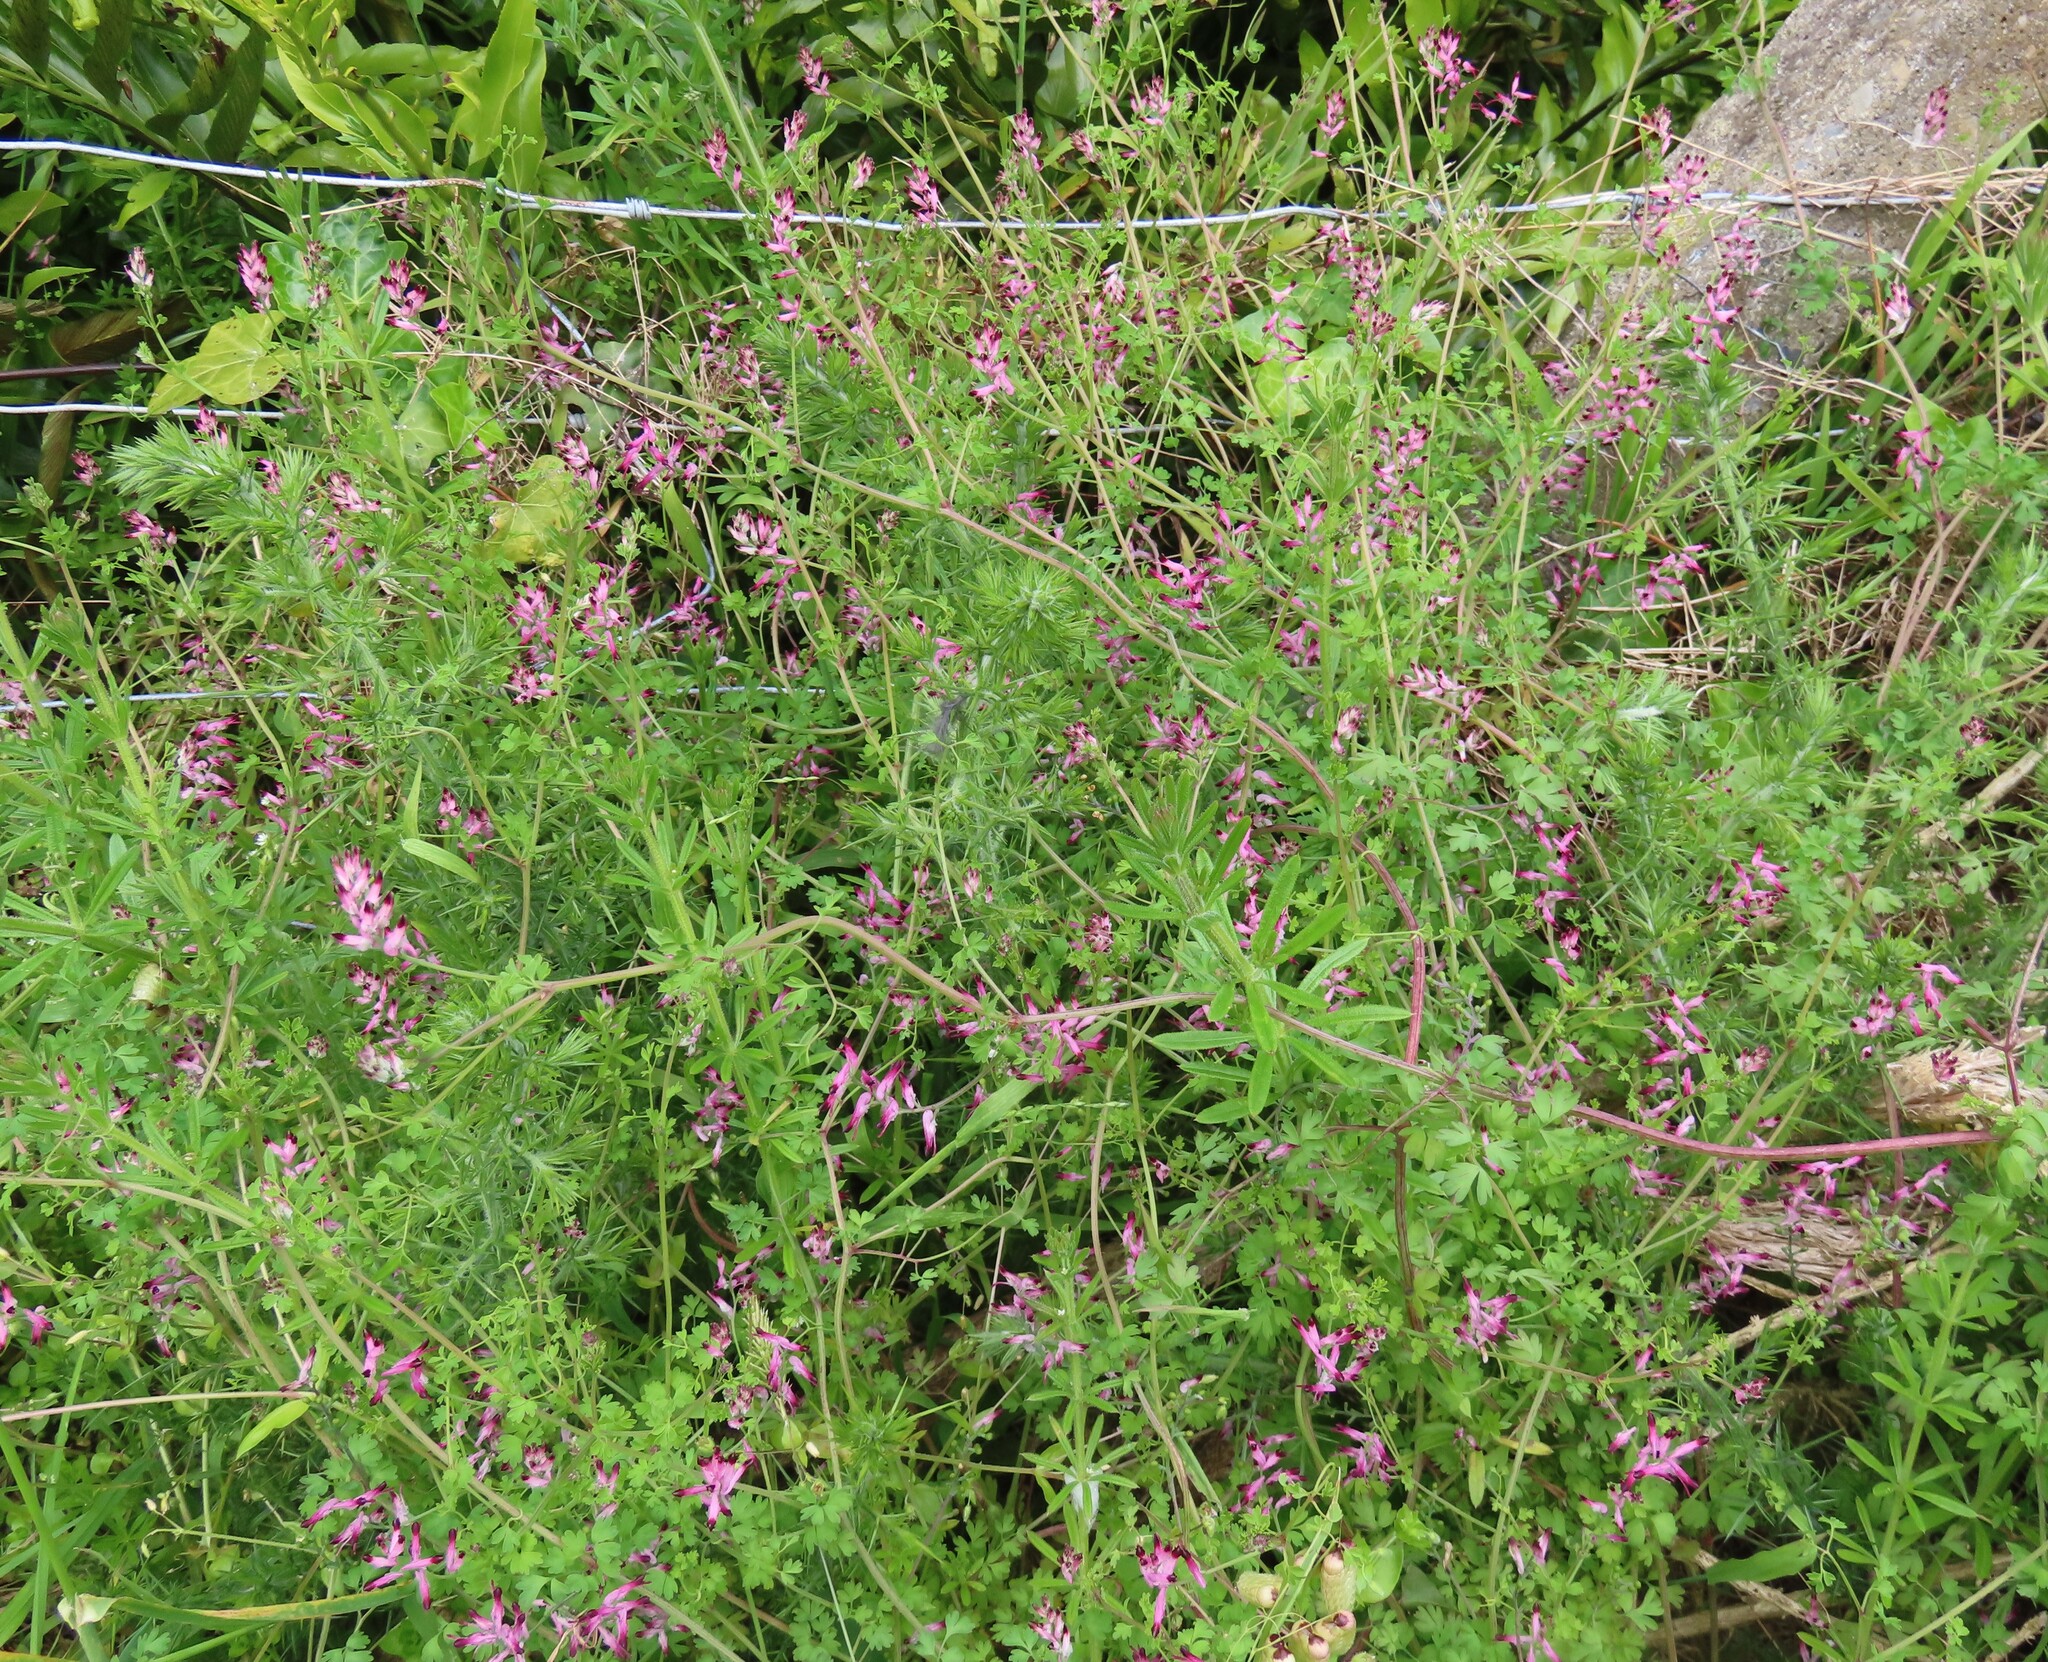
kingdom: Plantae
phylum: Tracheophyta
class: Magnoliopsida
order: Ranunculales
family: Papaveraceae
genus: Fumaria
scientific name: Fumaria muralis
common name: Common ramping-fumitory
